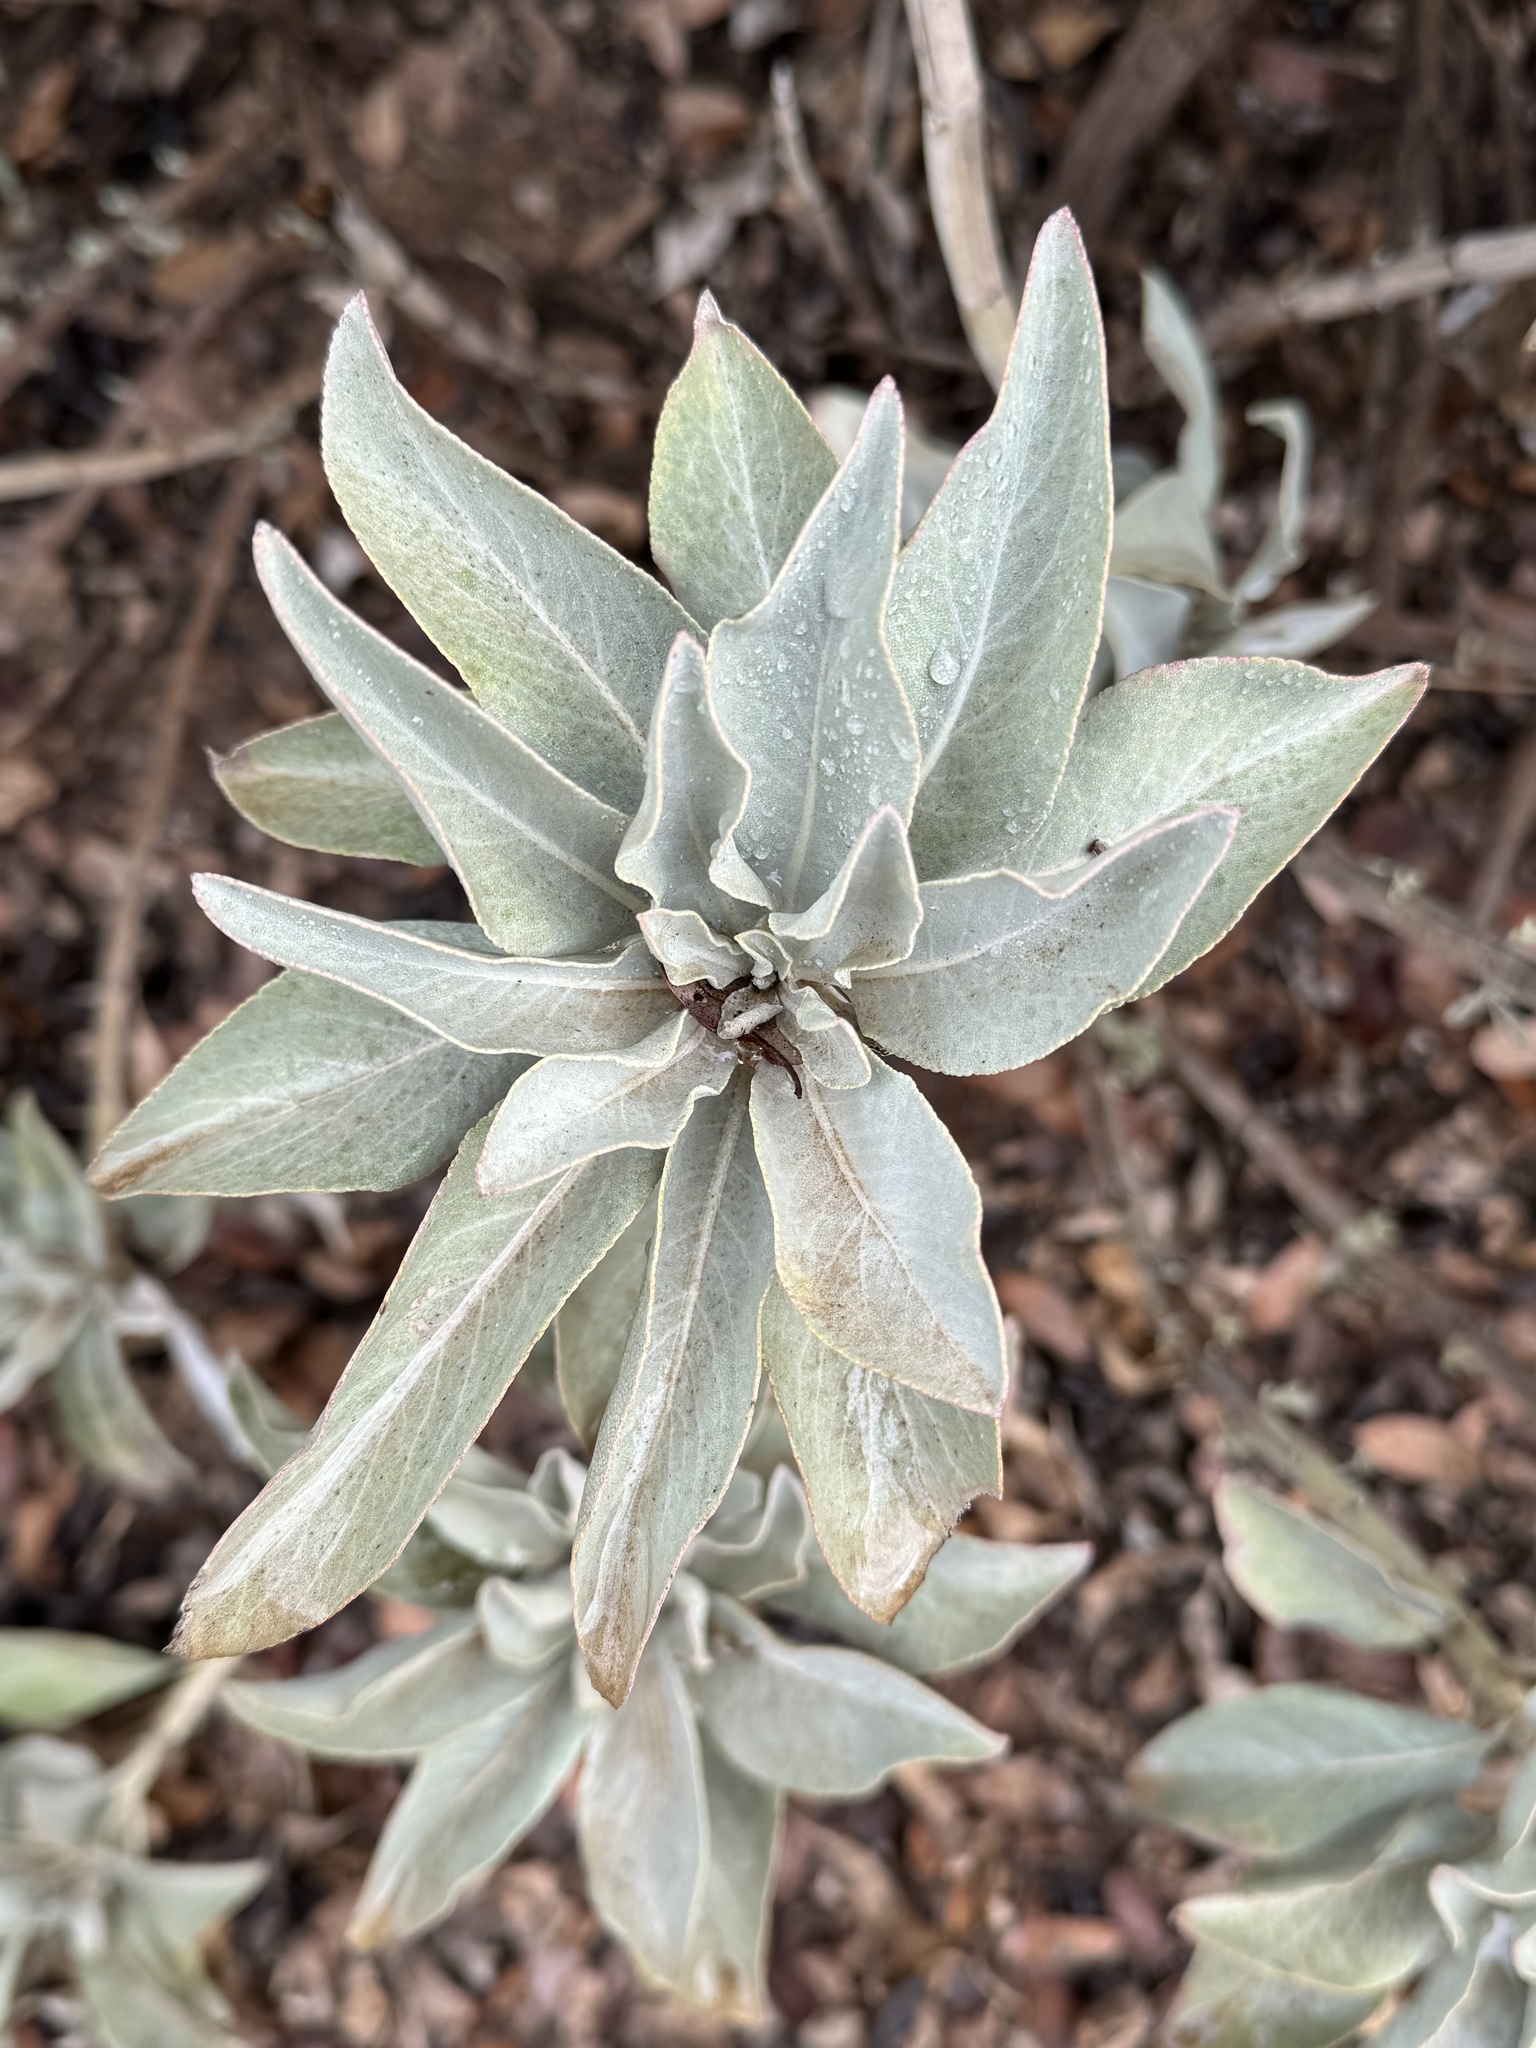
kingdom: Plantae
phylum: Tracheophyta
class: Magnoliopsida
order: Lamiales
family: Lamiaceae
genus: Salvia
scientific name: Salvia apiana
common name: White sage
